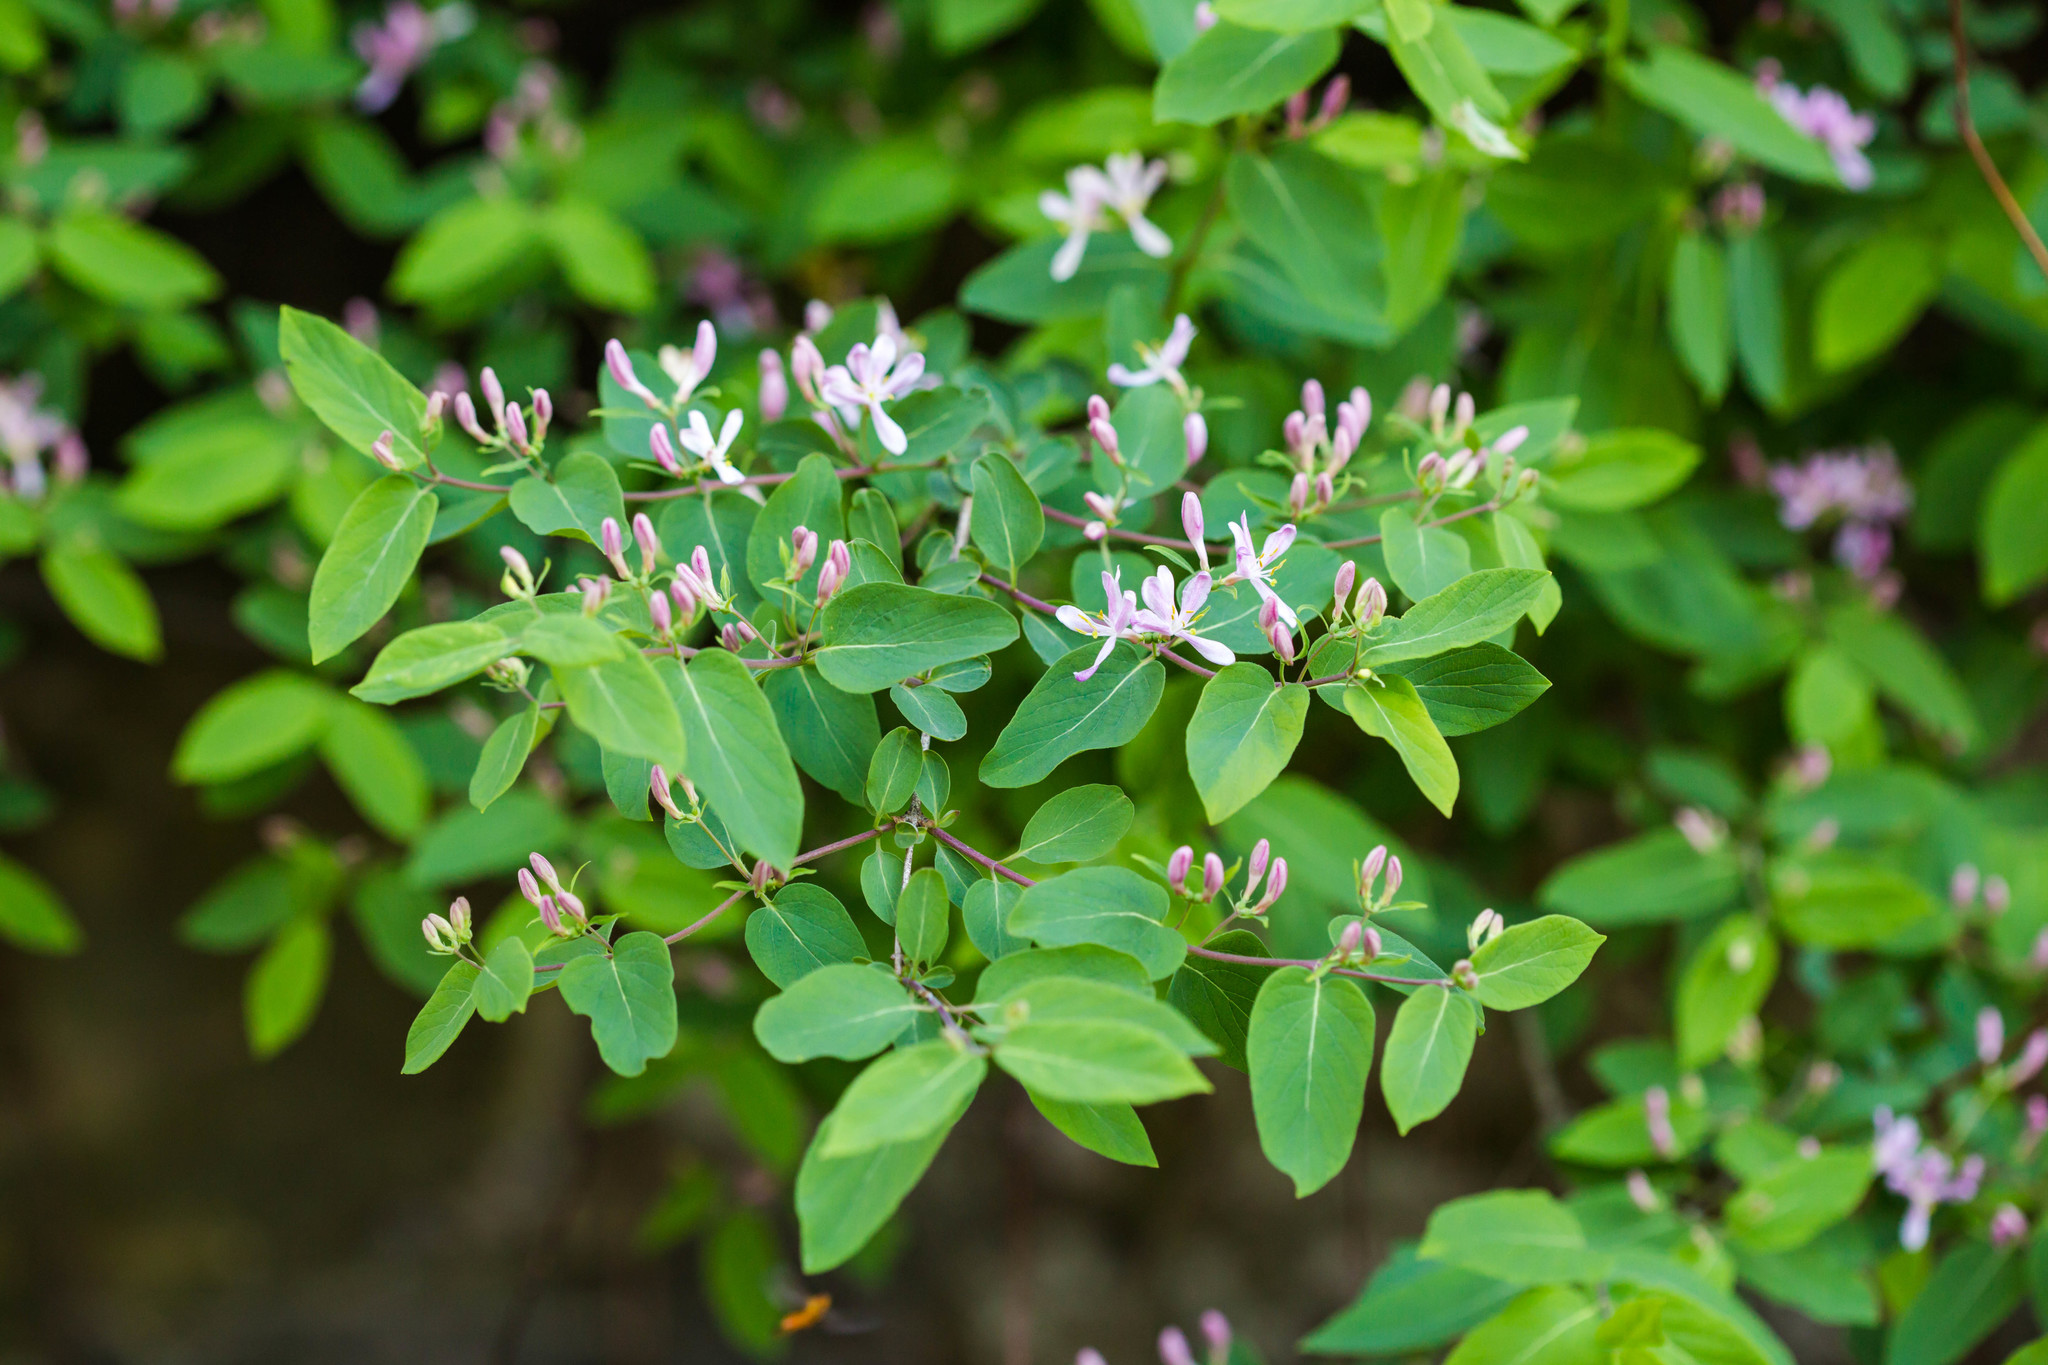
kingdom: Plantae
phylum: Tracheophyta
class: Magnoliopsida
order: Dipsacales
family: Caprifoliaceae
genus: Lonicera
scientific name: Lonicera tatarica
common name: Tatarian honeysuckle
